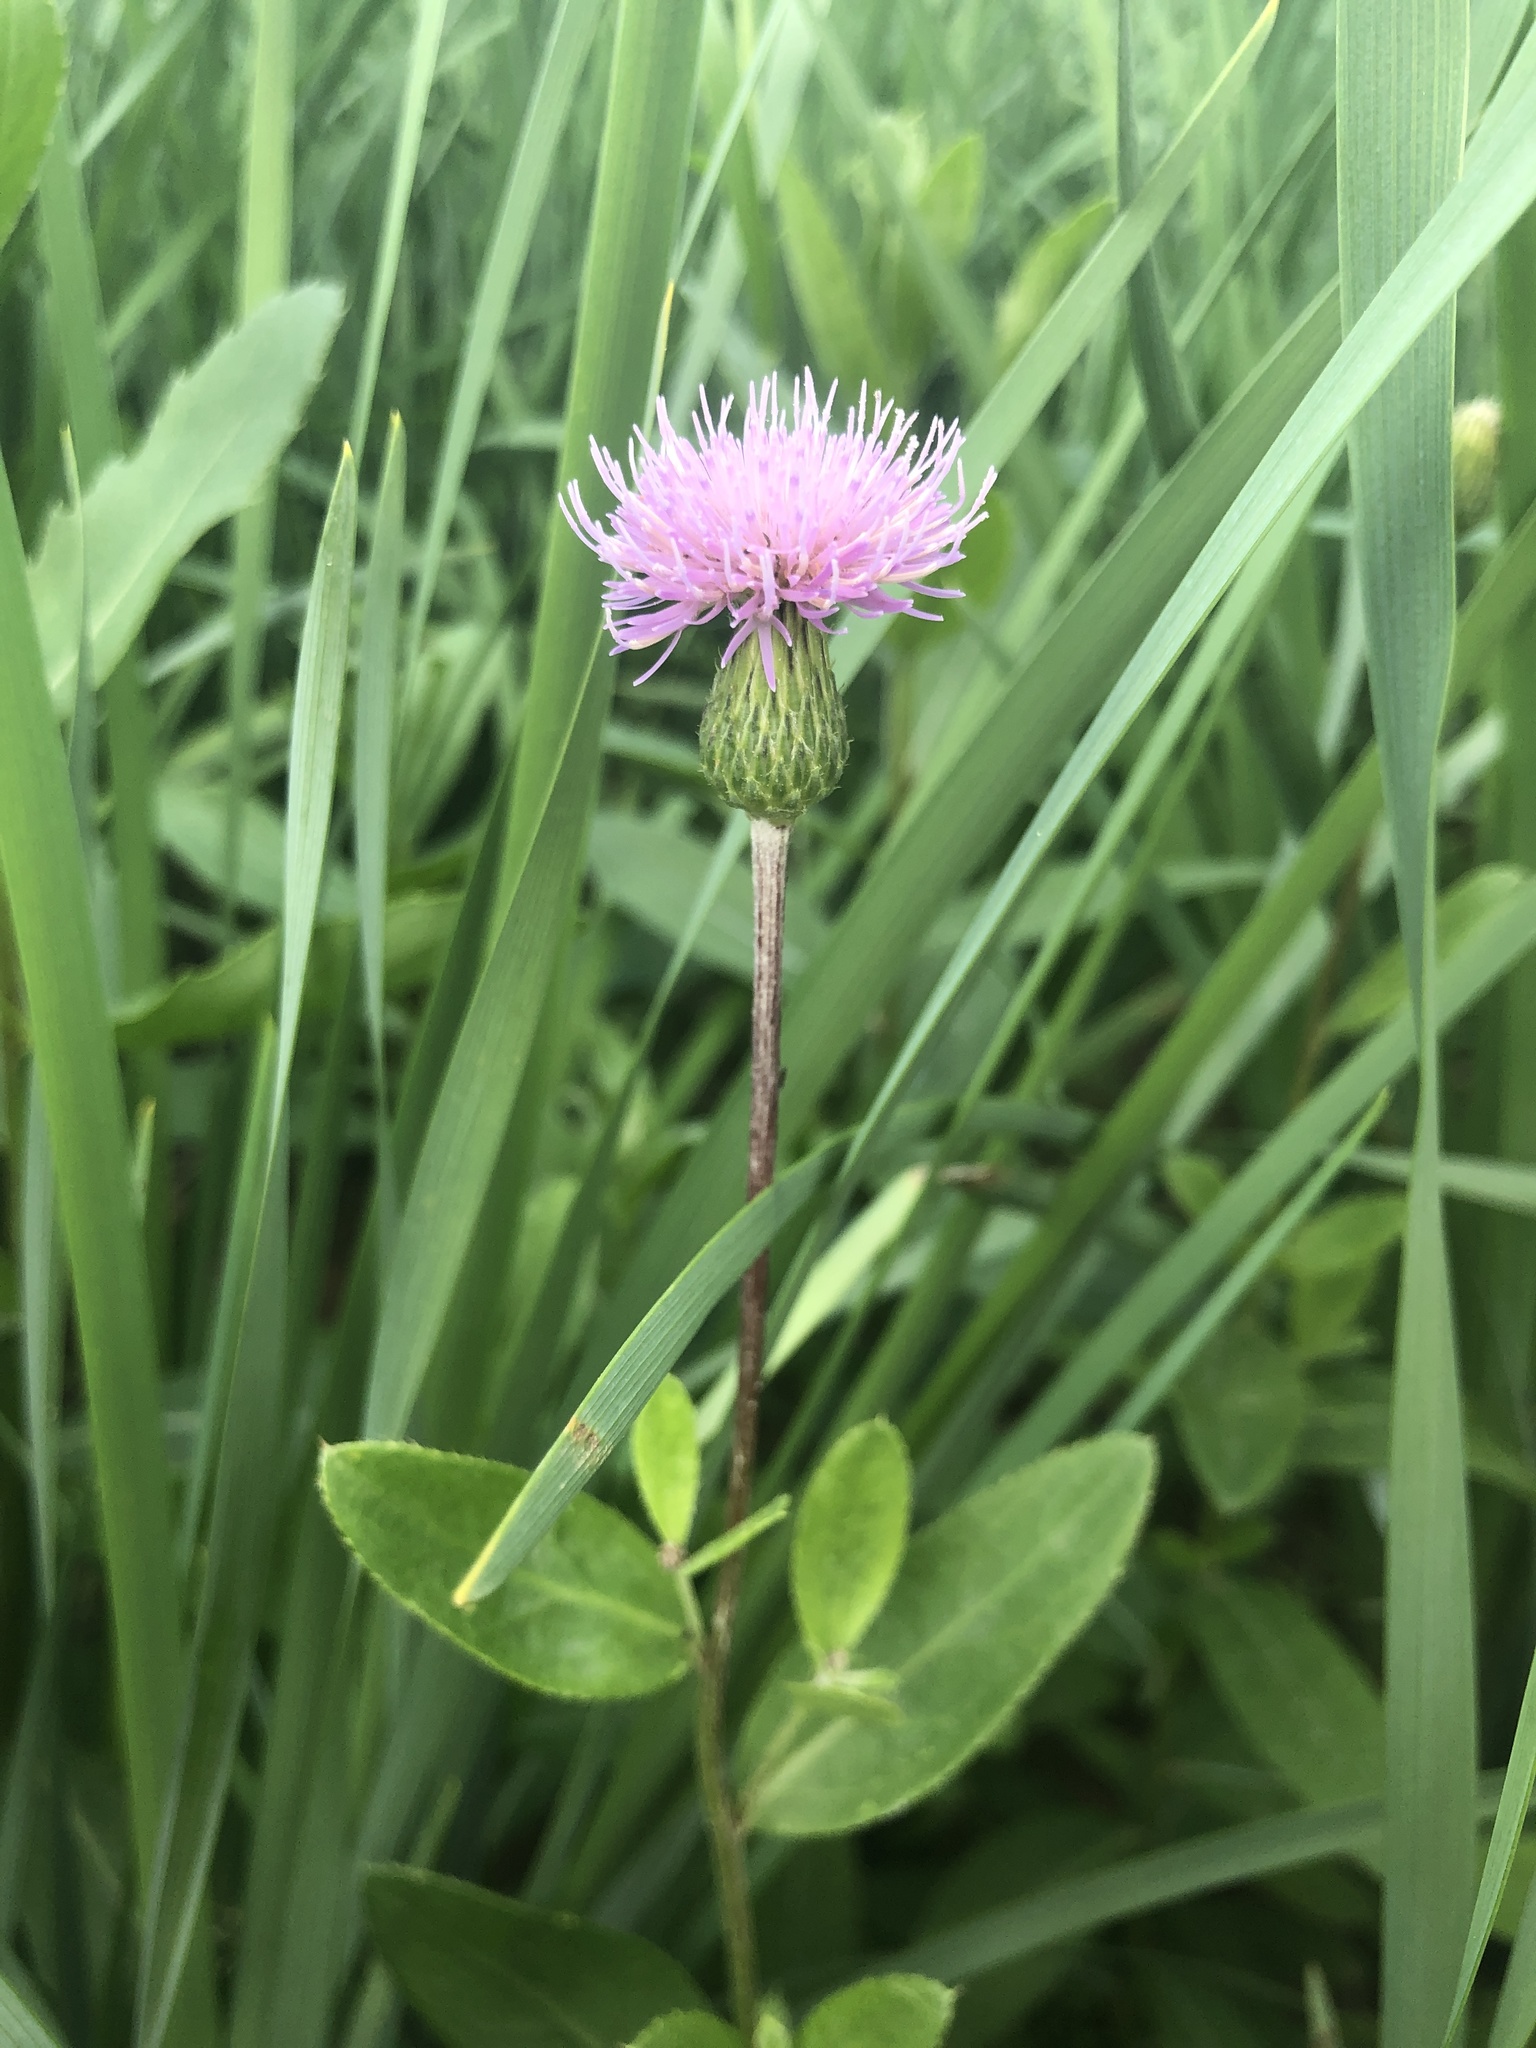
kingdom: Plantae
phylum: Tracheophyta
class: Magnoliopsida
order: Asterales
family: Asteraceae
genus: Cirsium
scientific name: Cirsium arvense
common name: Creeping thistle
